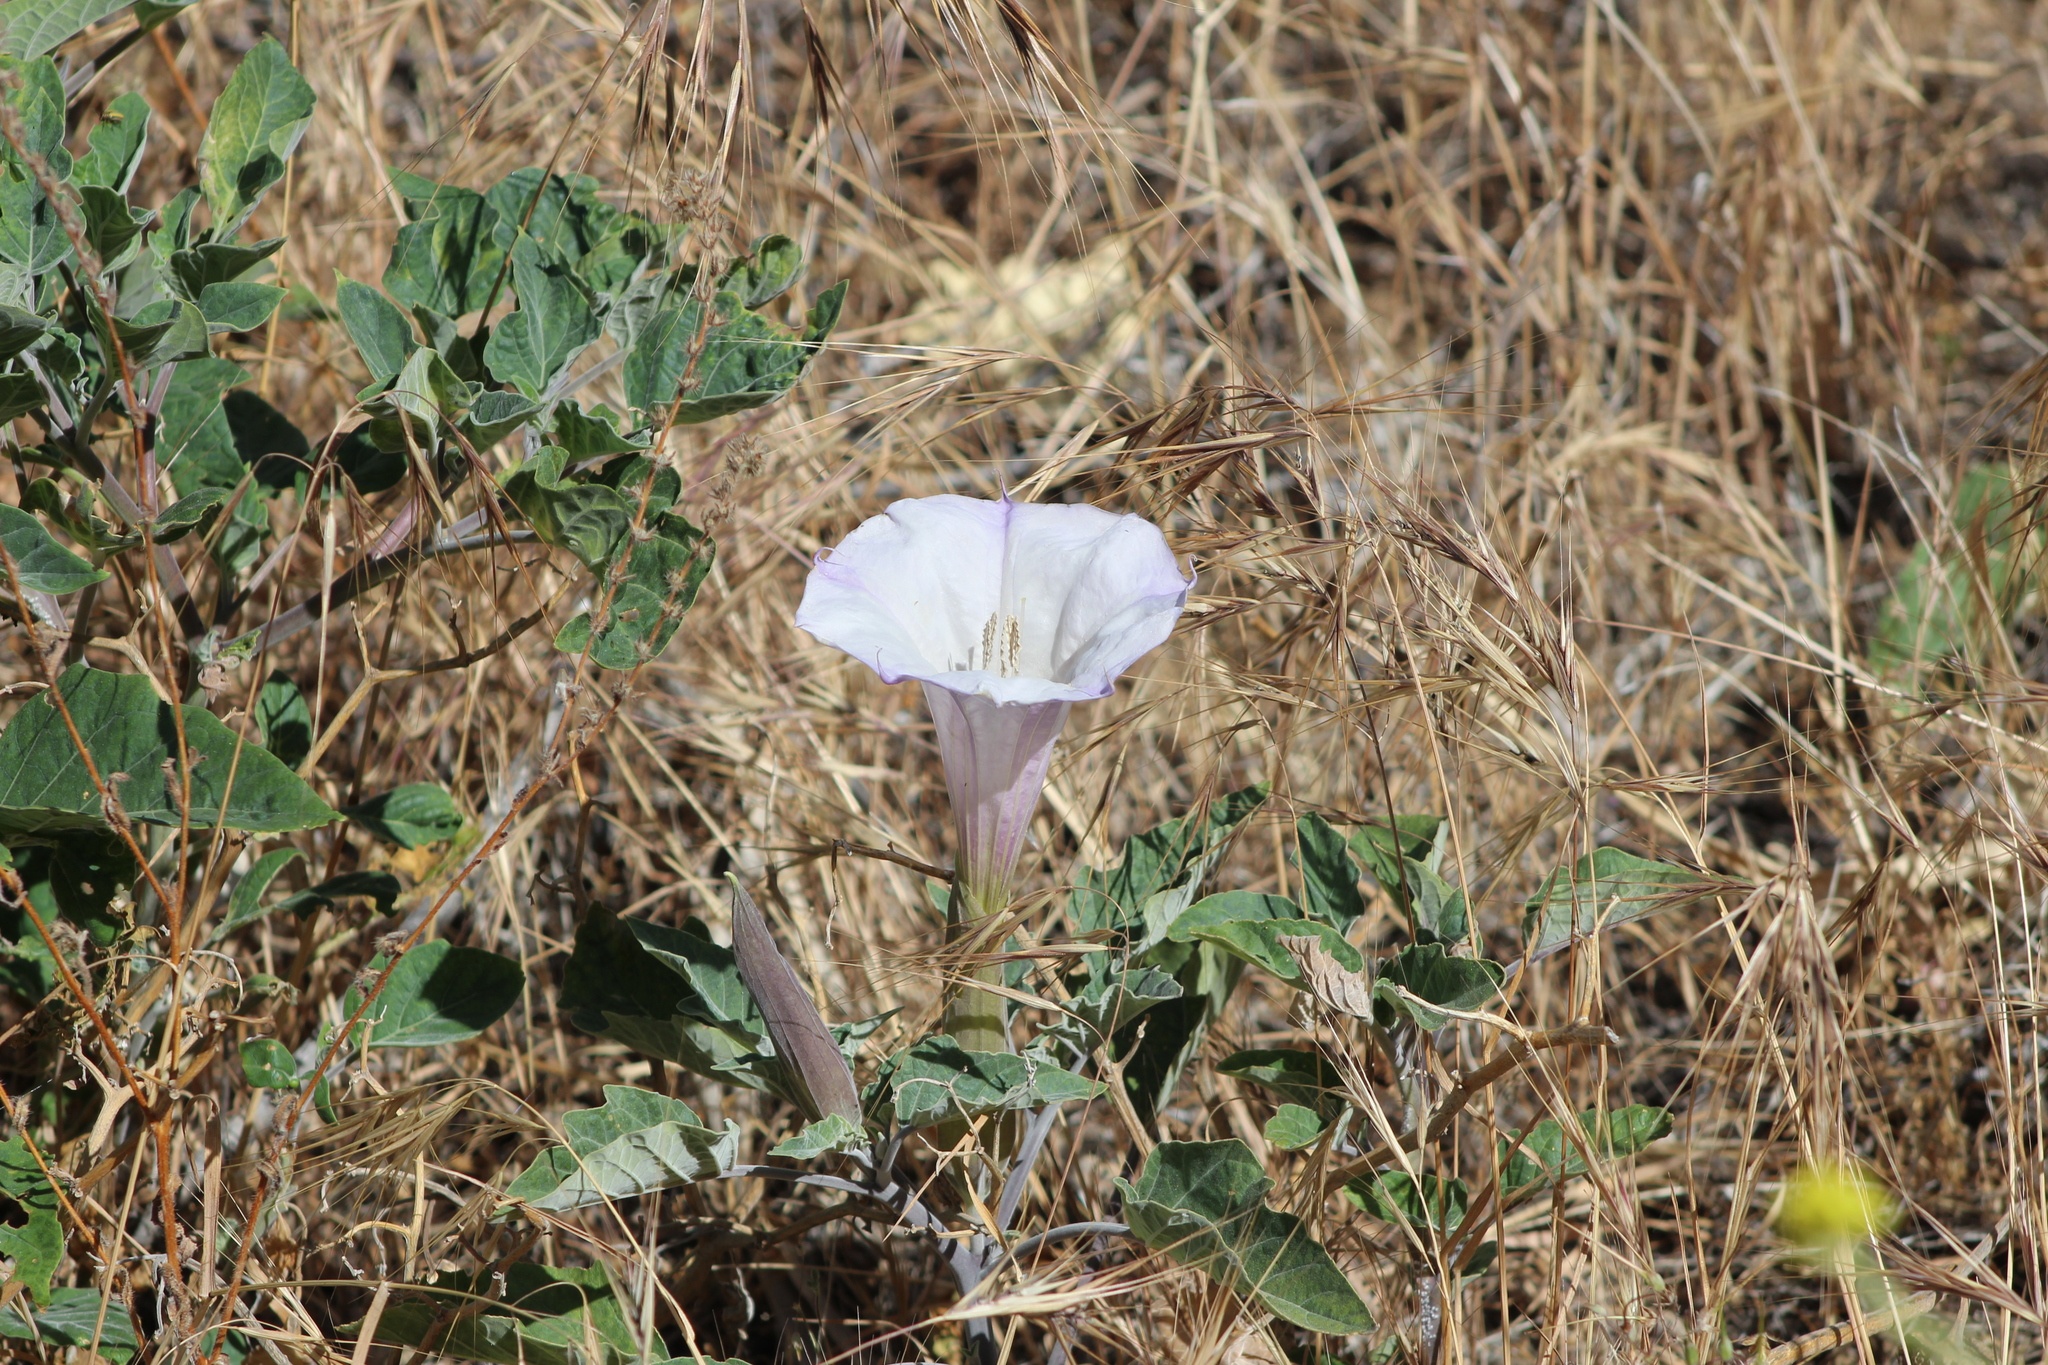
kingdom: Plantae
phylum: Tracheophyta
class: Magnoliopsida
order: Solanales
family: Solanaceae
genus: Datura
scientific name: Datura wrightii
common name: Sacred thorn-apple
